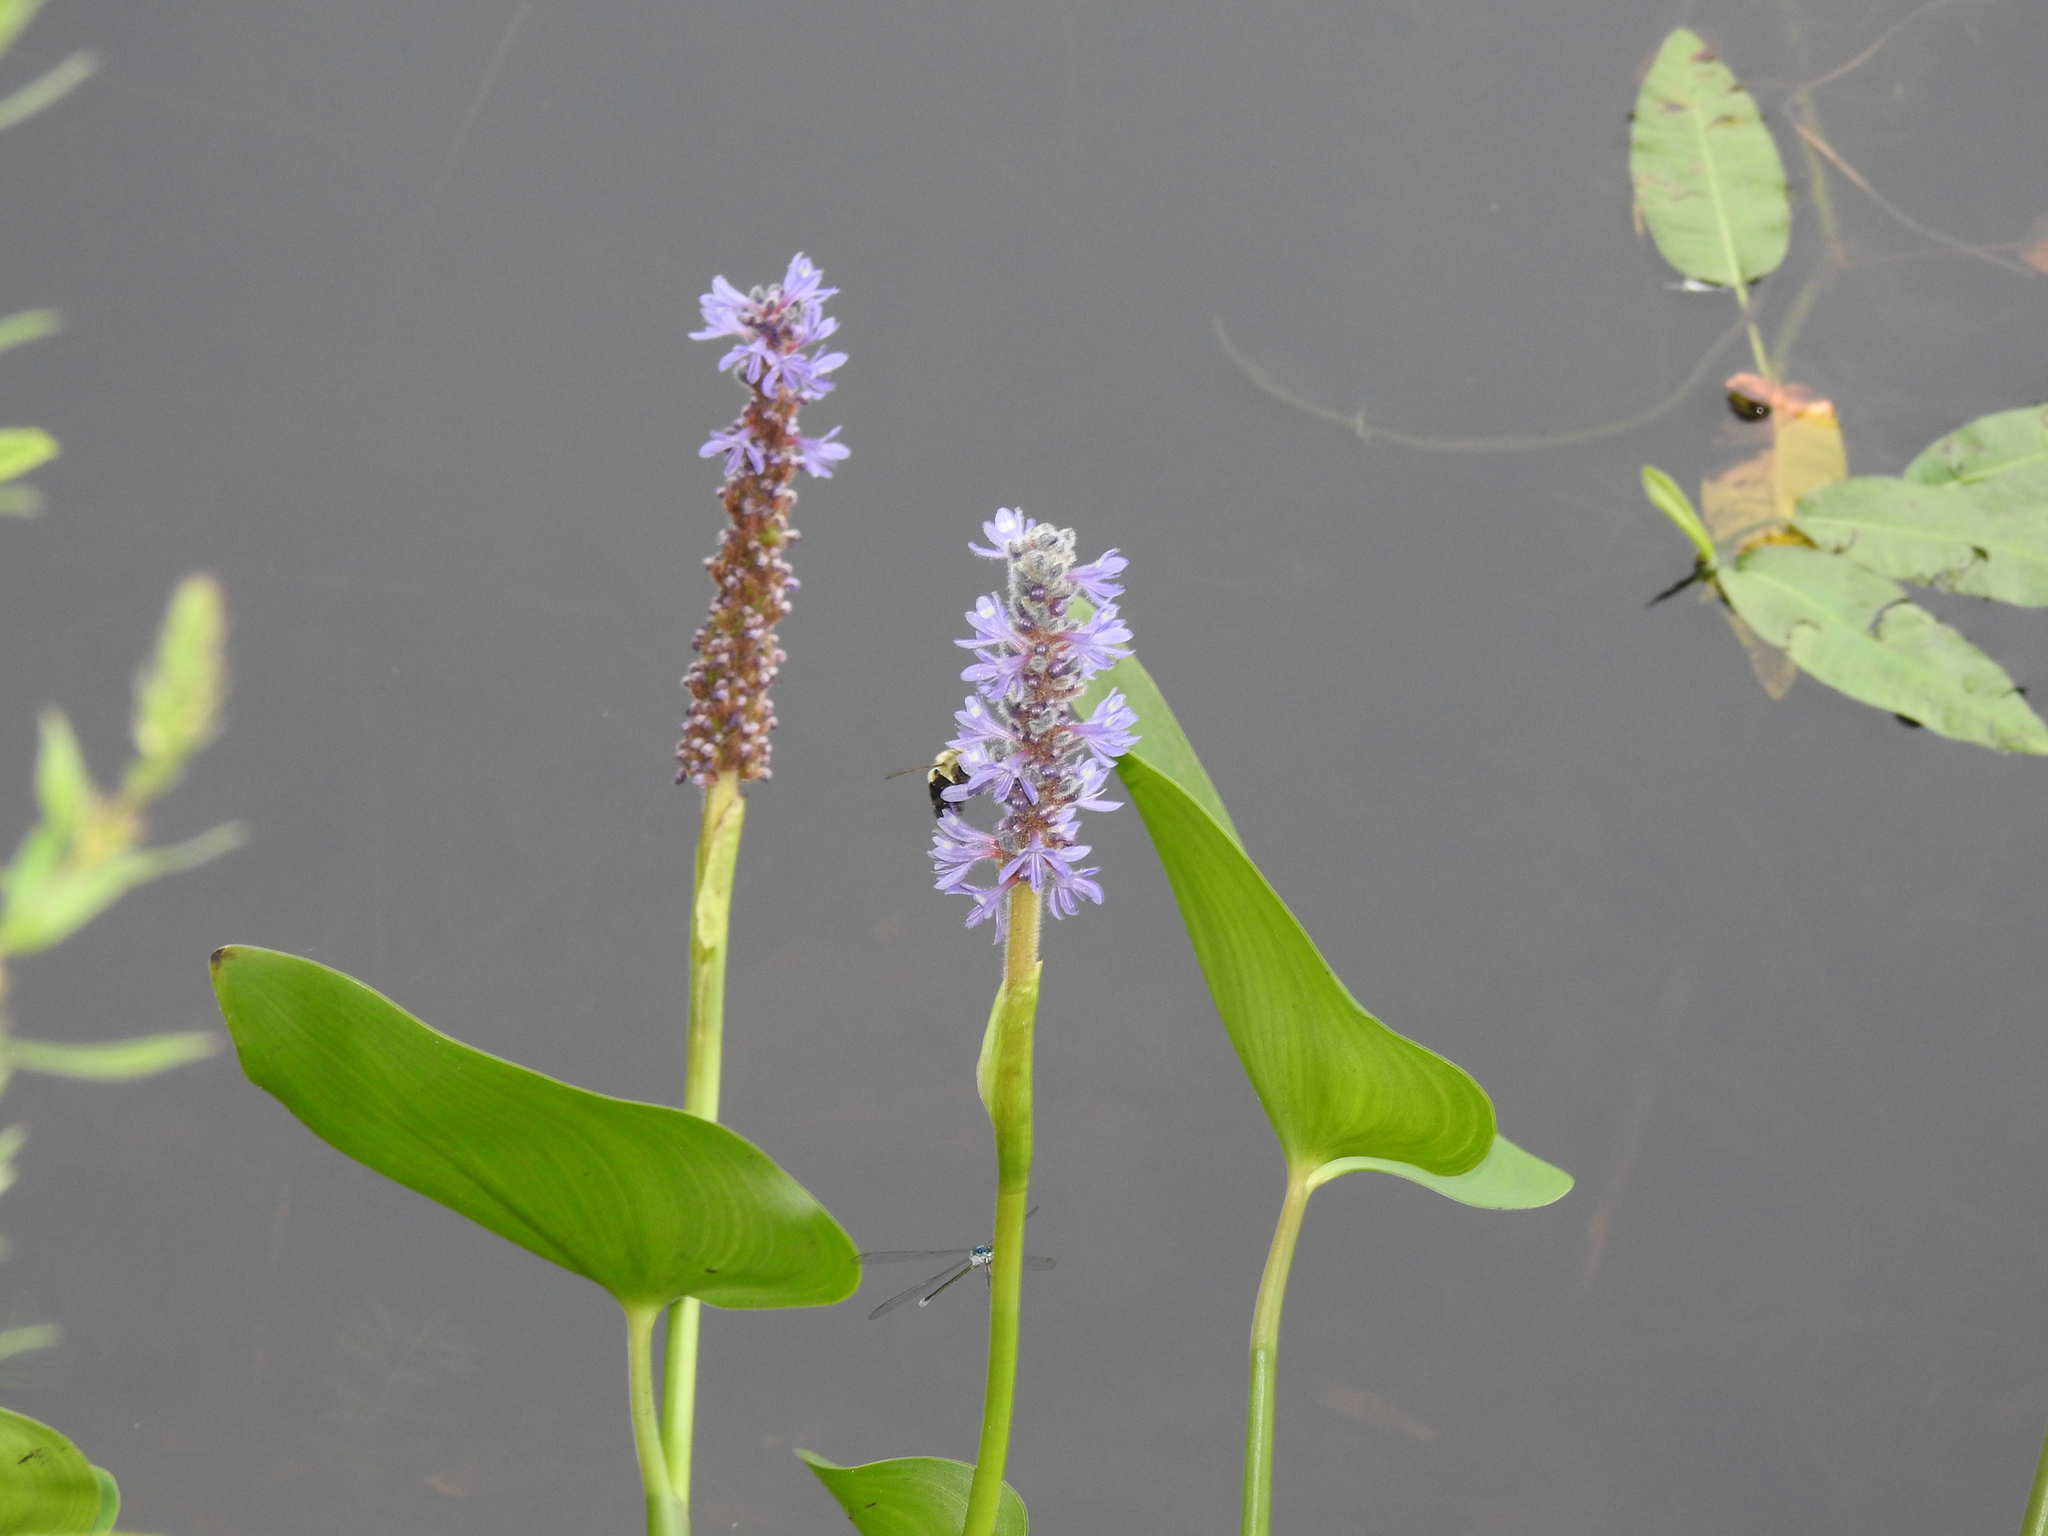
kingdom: Plantae
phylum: Tracheophyta
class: Liliopsida
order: Commelinales
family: Pontederiaceae
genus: Pontederia
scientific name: Pontederia cordata
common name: Pickerelweed
